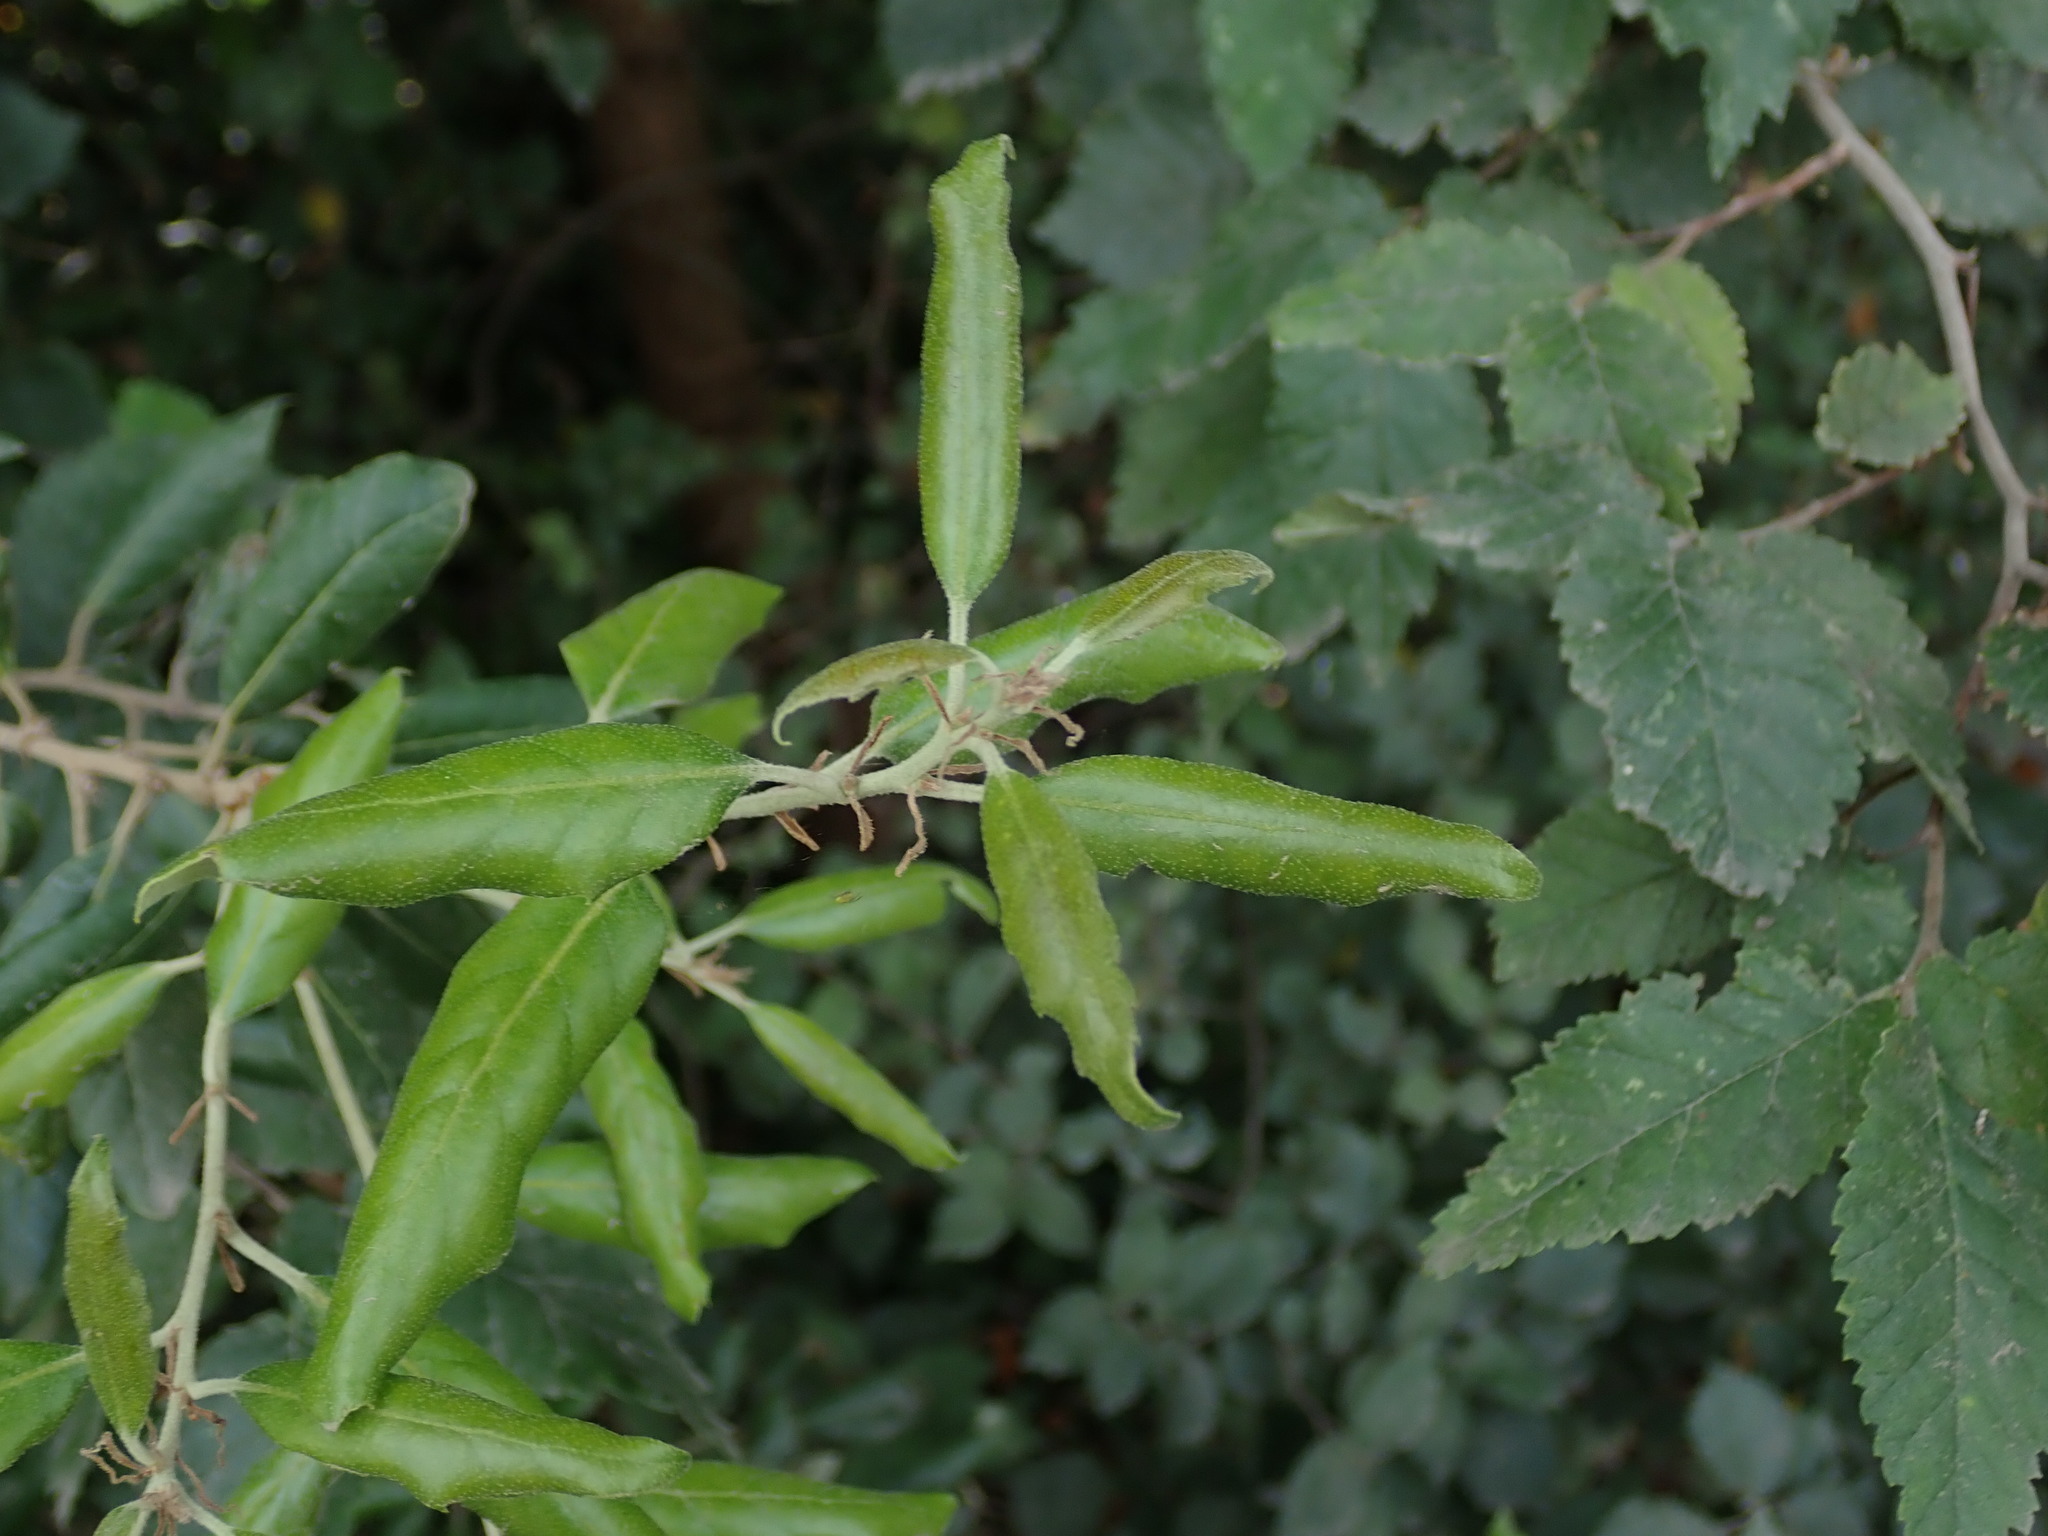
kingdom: Plantae
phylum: Tracheophyta
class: Magnoliopsida
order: Fagales
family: Fagaceae
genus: Quercus
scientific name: Quercus ilex
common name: Evergreen oak
